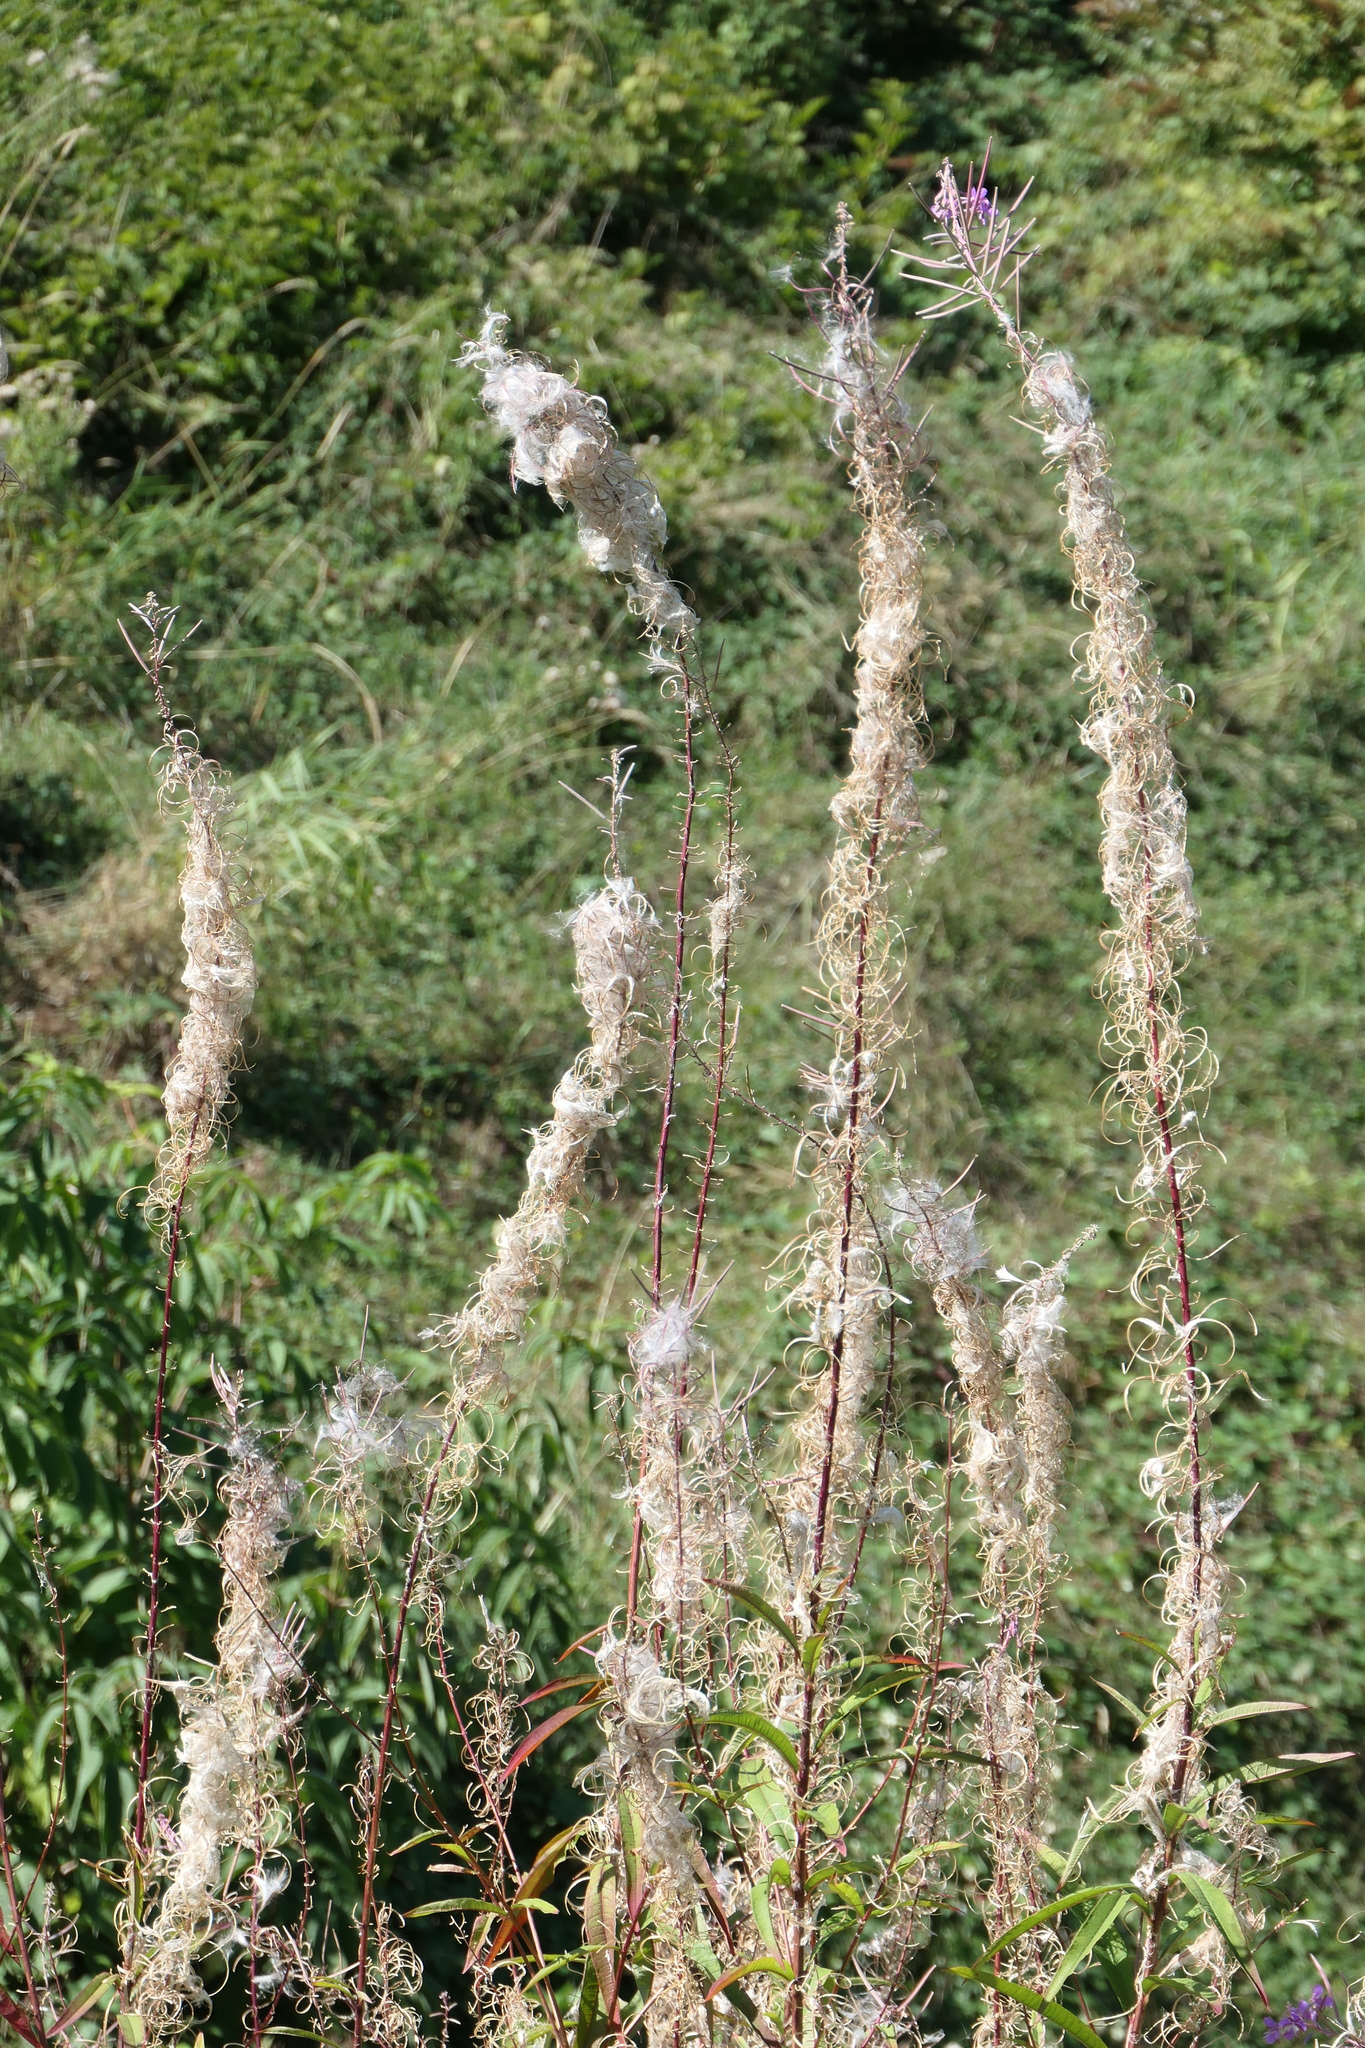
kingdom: Plantae
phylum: Tracheophyta
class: Magnoliopsida
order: Myrtales
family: Onagraceae
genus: Chamaenerion
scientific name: Chamaenerion angustifolium
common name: Fireweed
